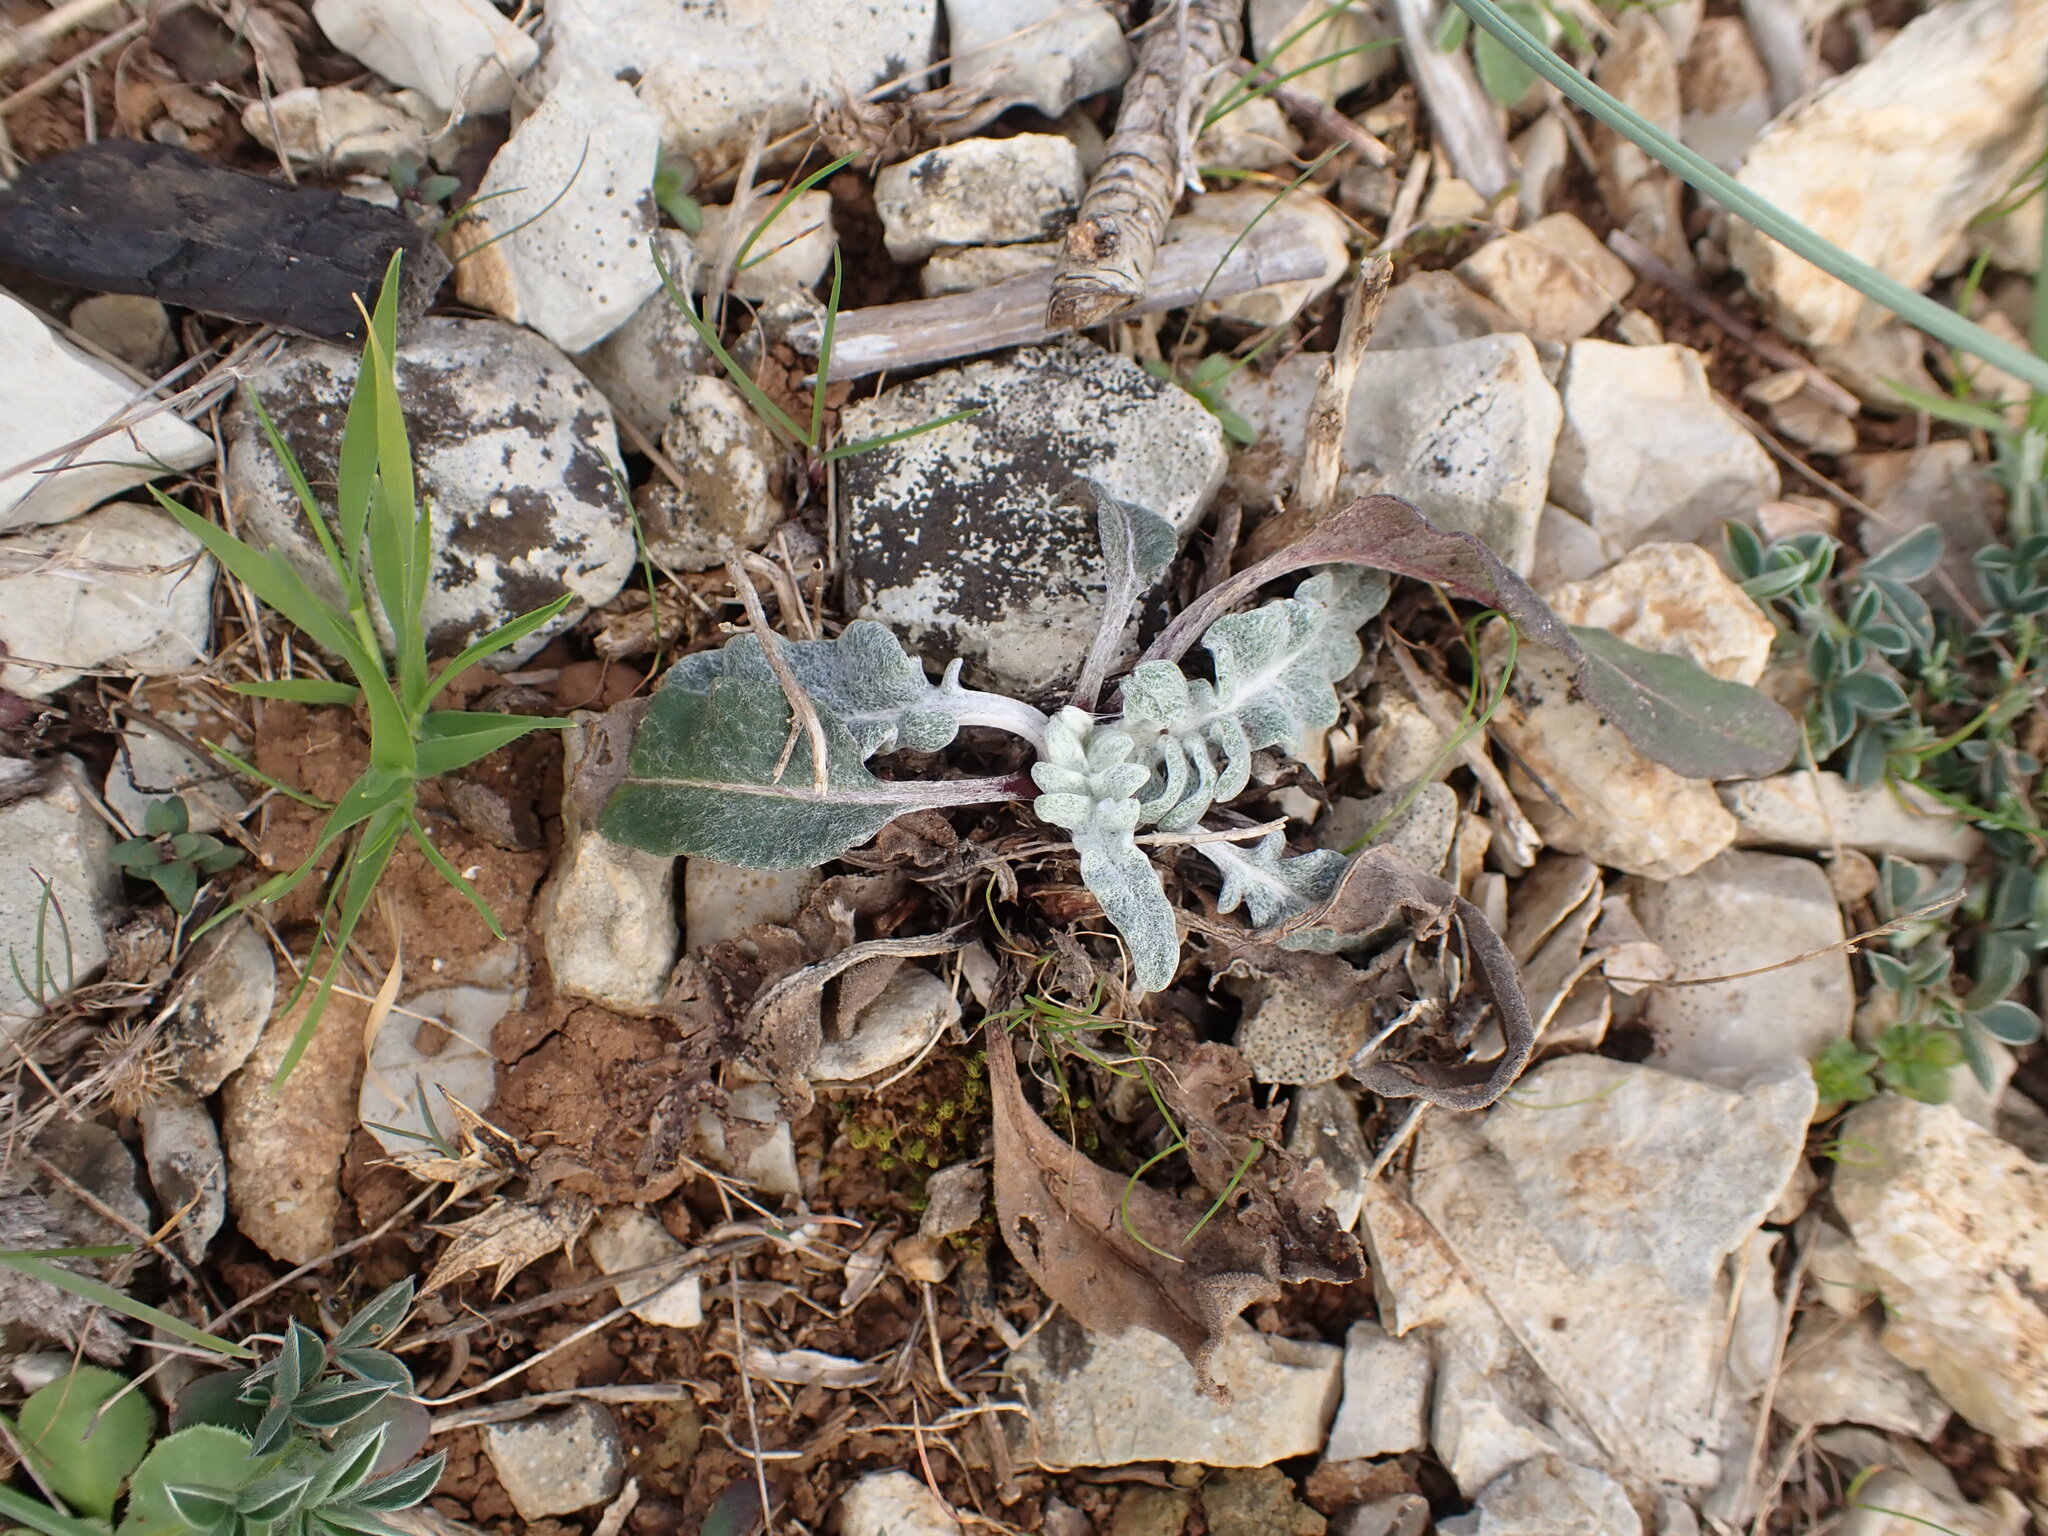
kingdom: Plantae
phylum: Tracheophyta
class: Magnoliopsida
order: Asterales
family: Asteraceae
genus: Leuzea
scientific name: Leuzea conifera
